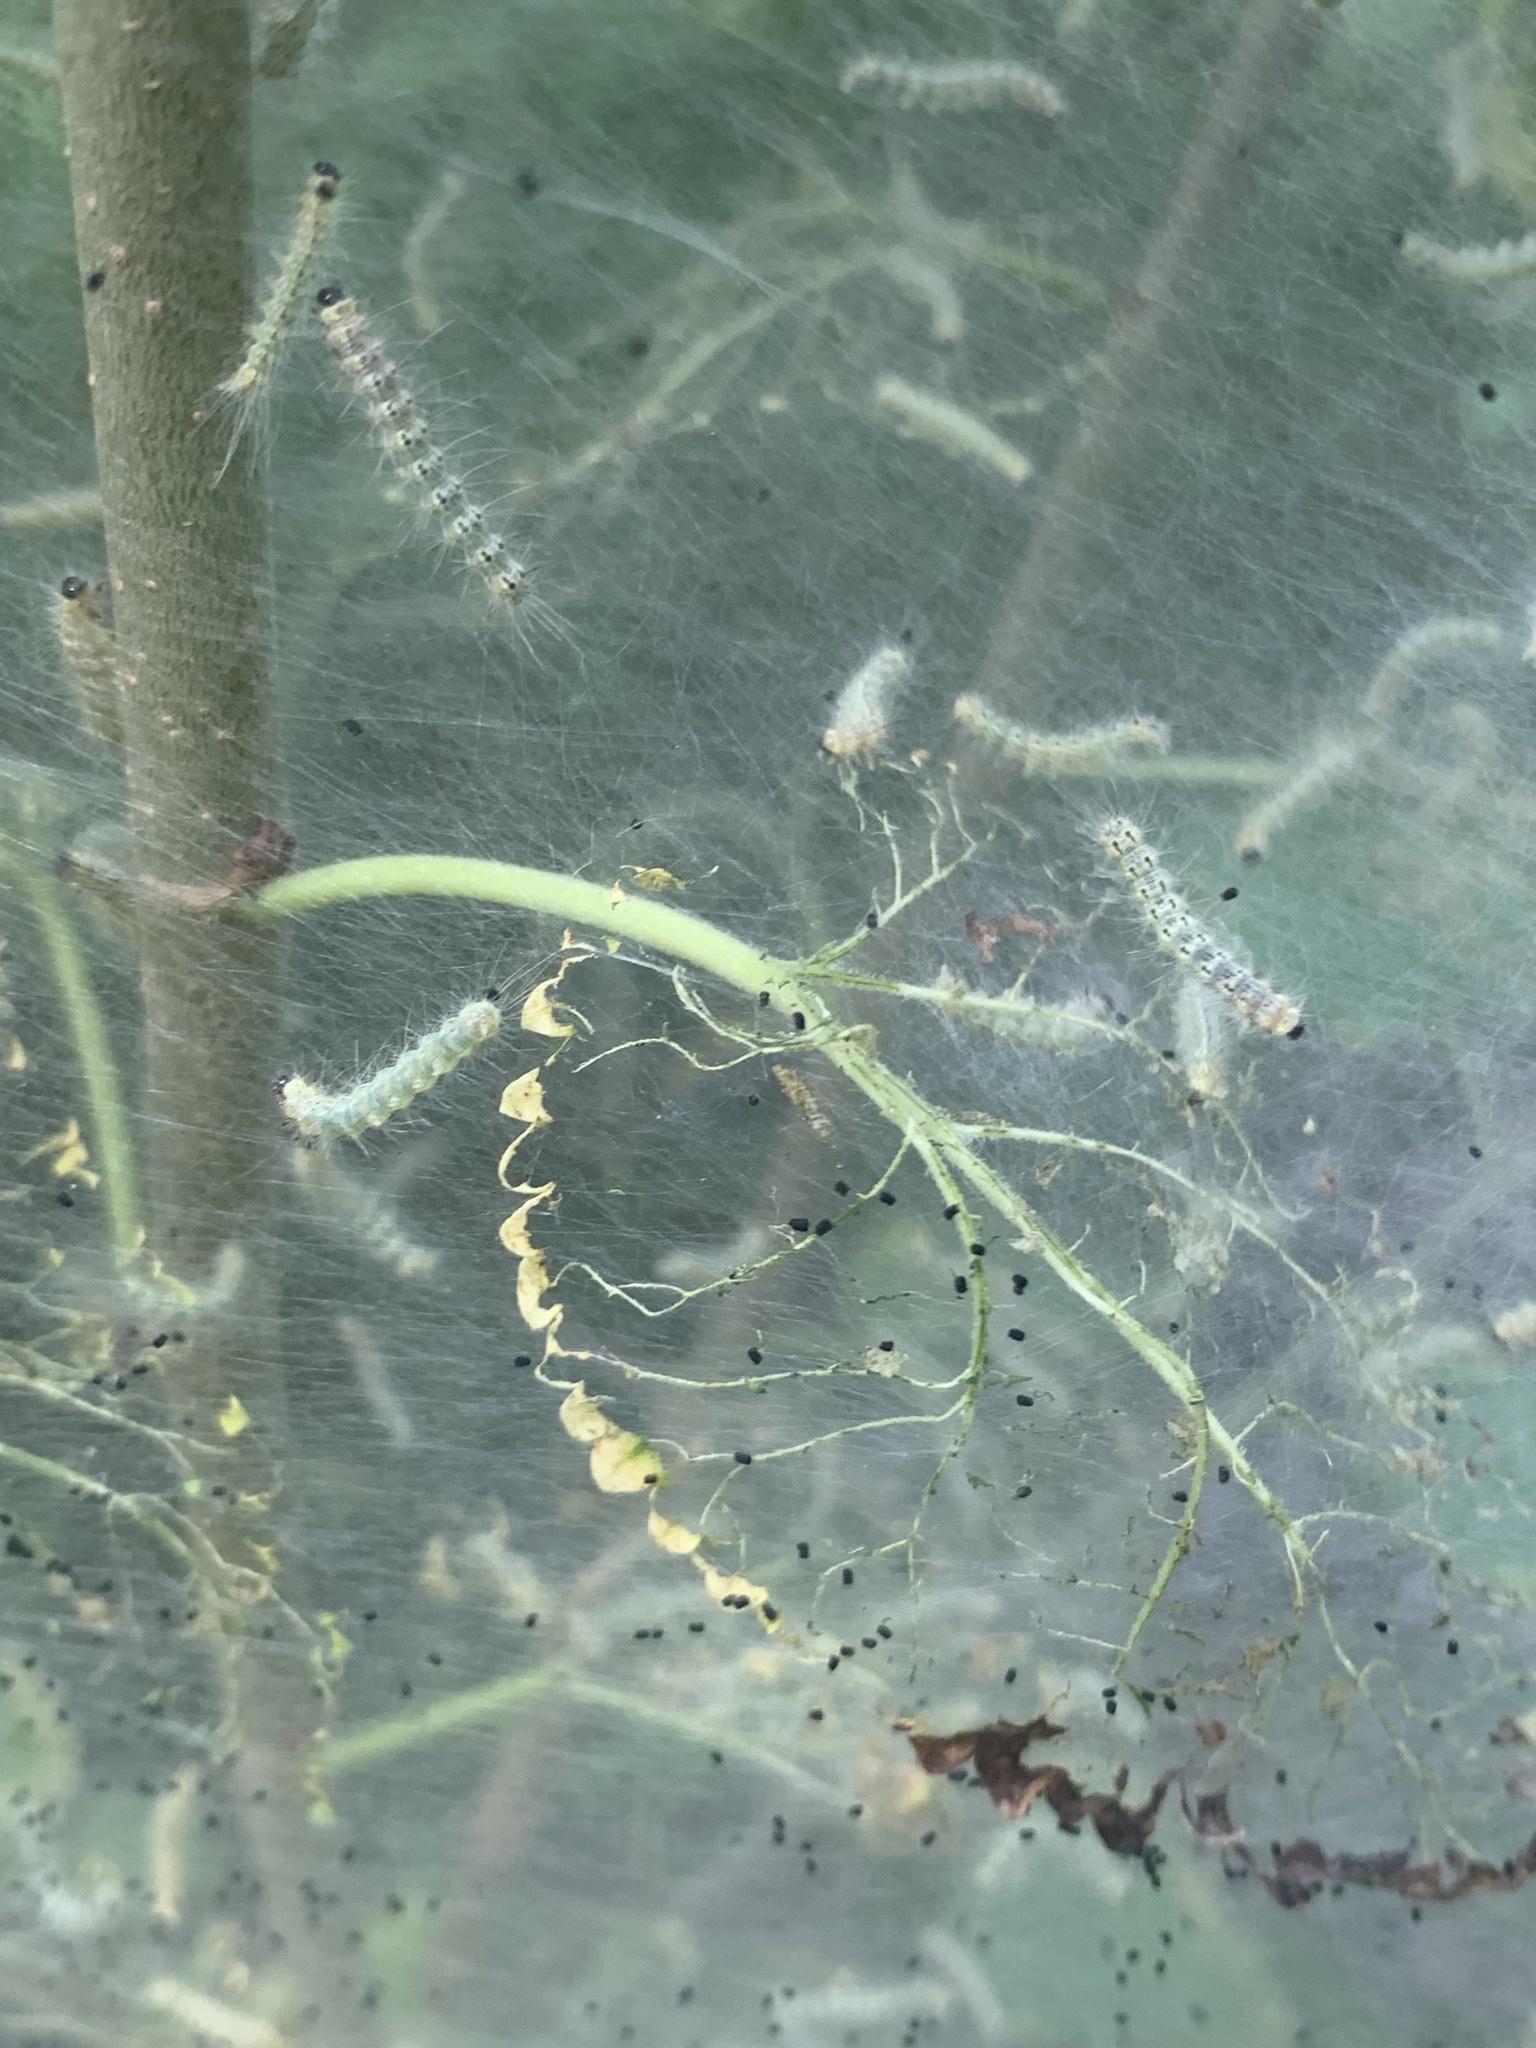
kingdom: Animalia
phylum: Arthropoda
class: Insecta
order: Lepidoptera
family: Erebidae
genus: Hyphantria
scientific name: Hyphantria cunea
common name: American white moth
